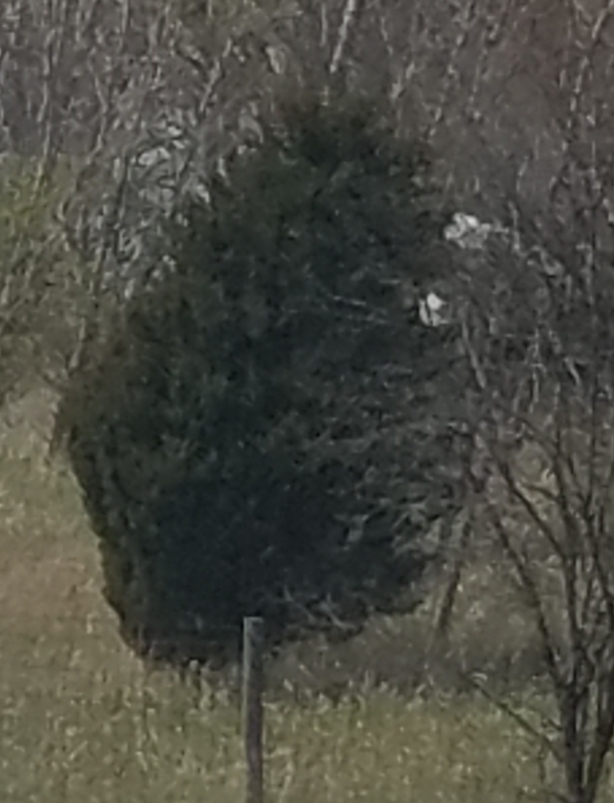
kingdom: Plantae
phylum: Tracheophyta
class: Pinopsida
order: Pinales
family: Cupressaceae
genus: Juniperus
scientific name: Juniperus virginiana
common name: Red juniper
